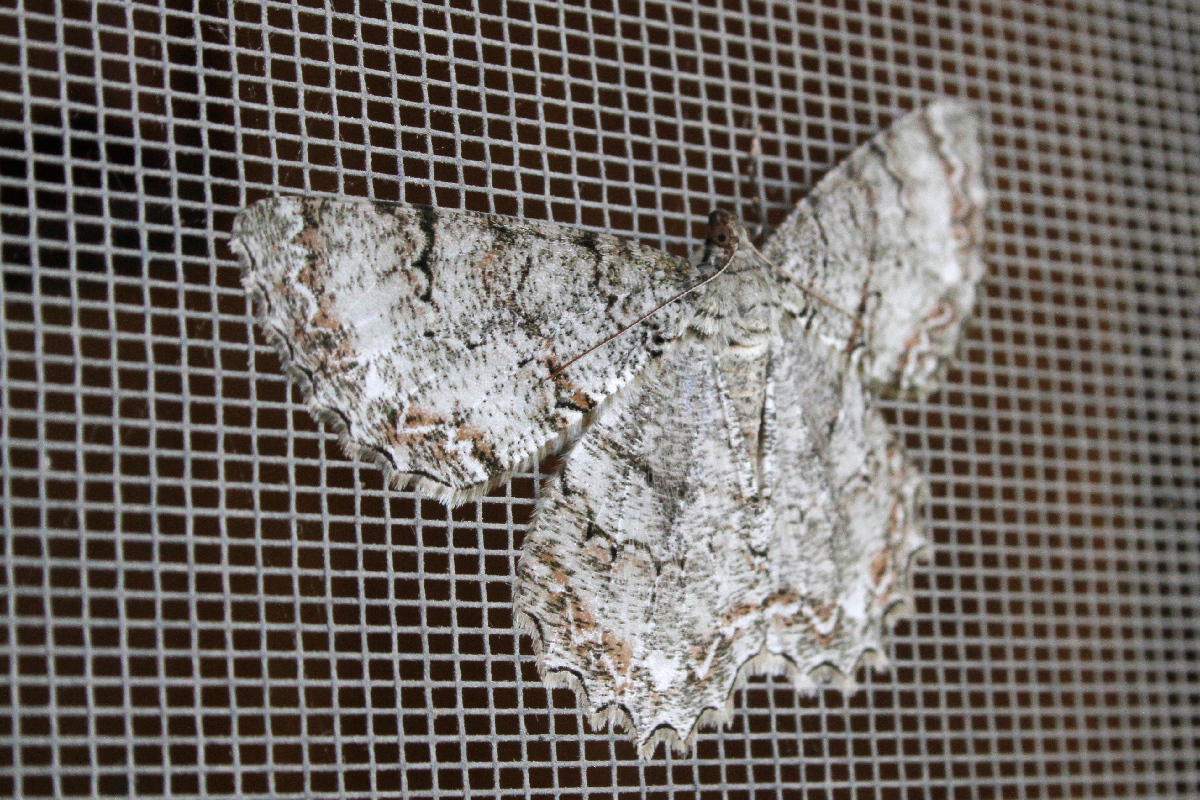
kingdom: Animalia
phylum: Arthropoda
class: Insecta
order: Lepidoptera
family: Geometridae
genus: Epimecis
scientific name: Epimecis hortaria
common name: Tulip-tree beauty
